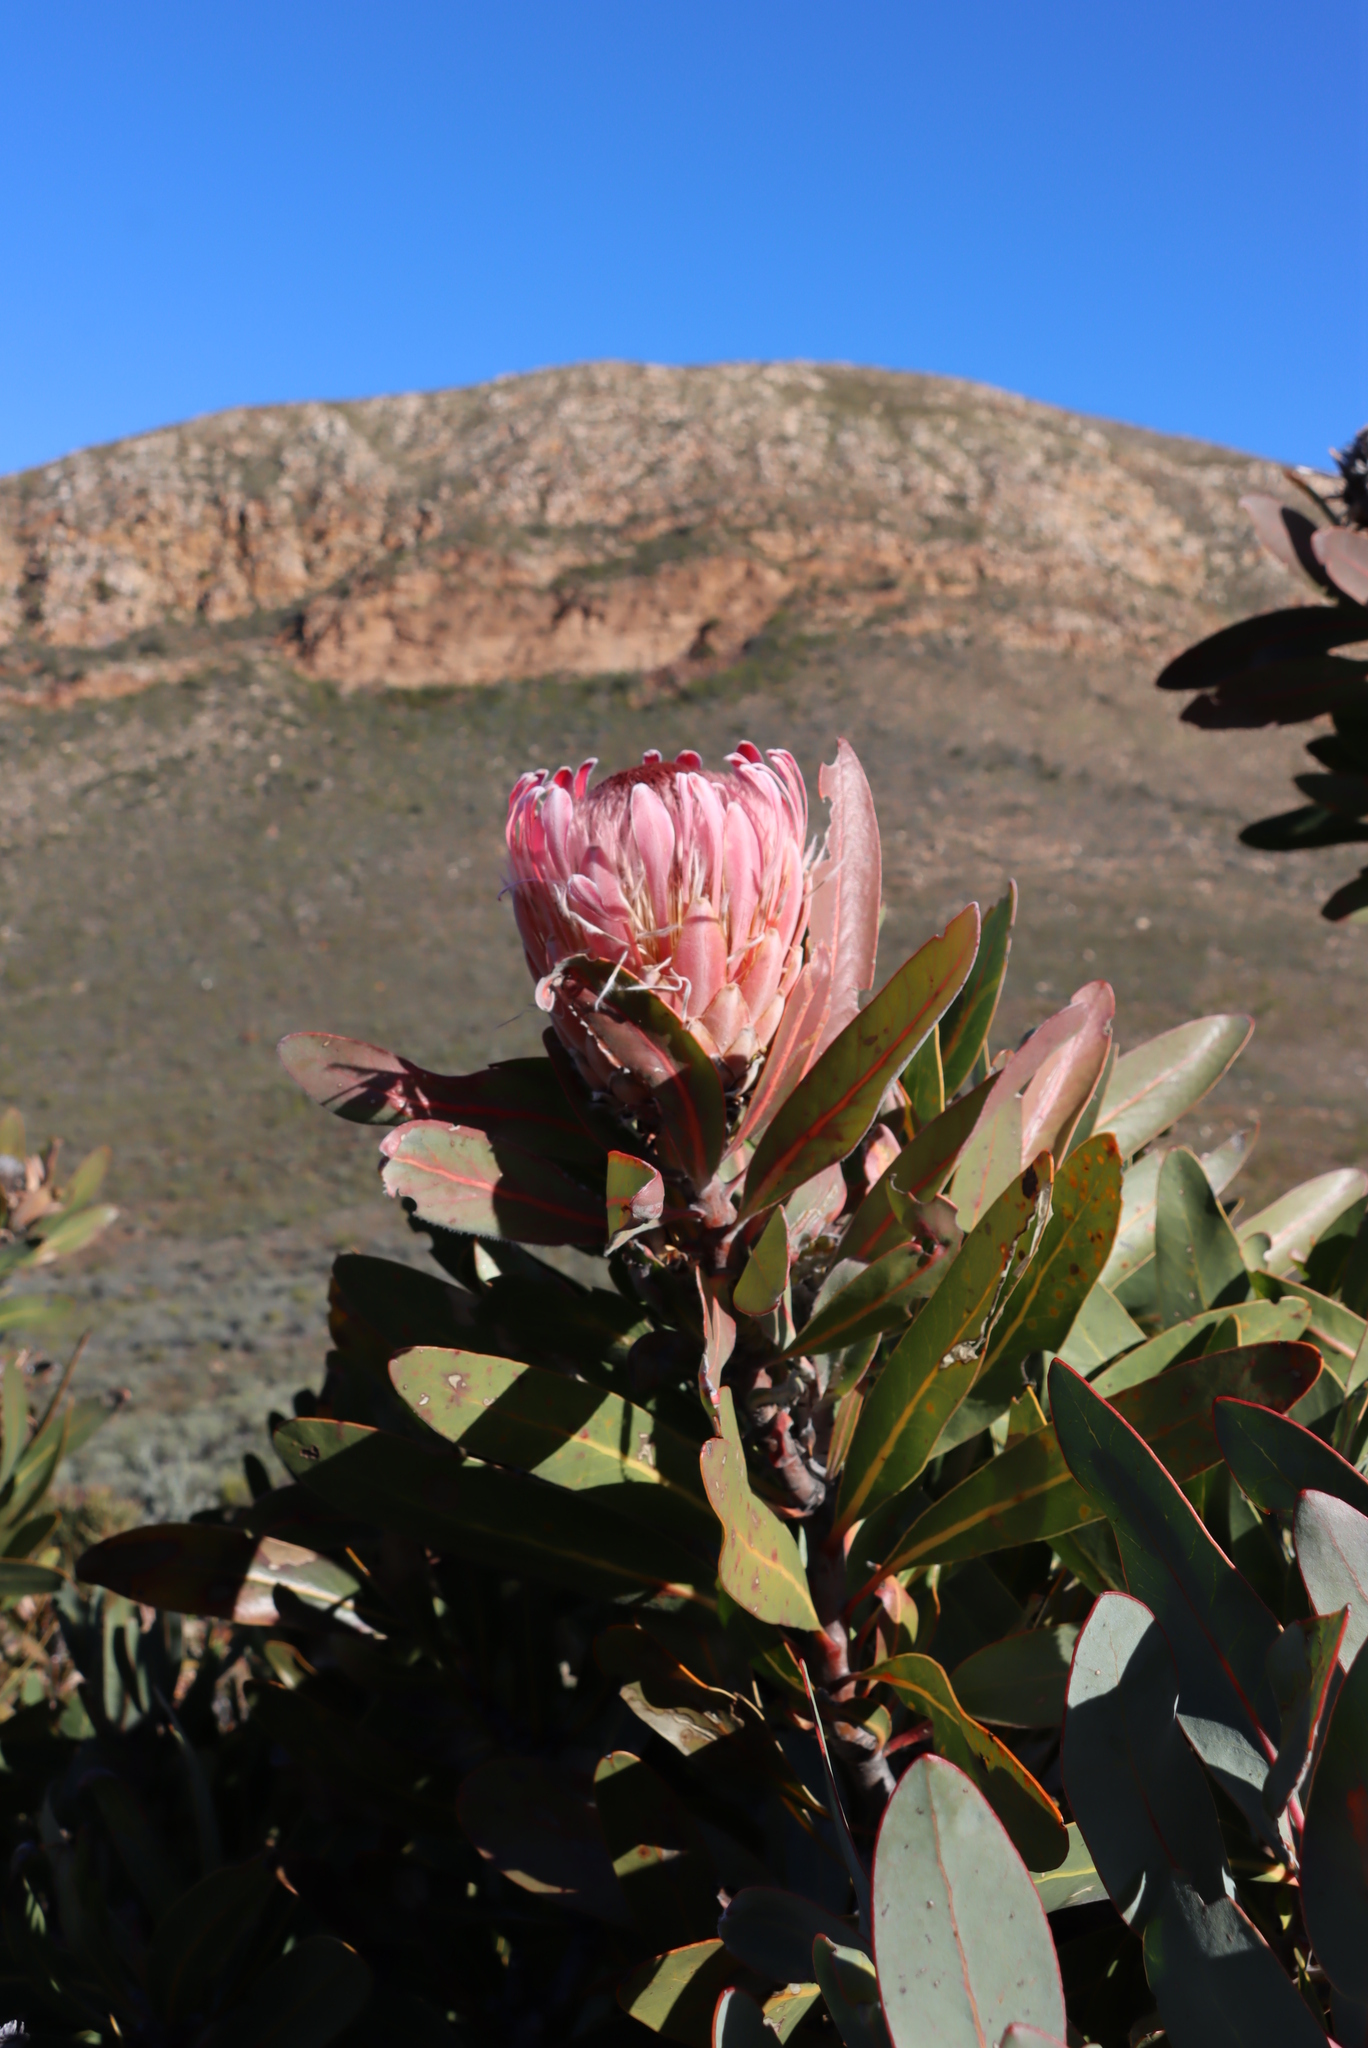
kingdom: Plantae
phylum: Tracheophyta
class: Magnoliopsida
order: Proteales
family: Proteaceae
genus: Protea
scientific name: Protea lorifolia
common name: Strap-leaved protea
